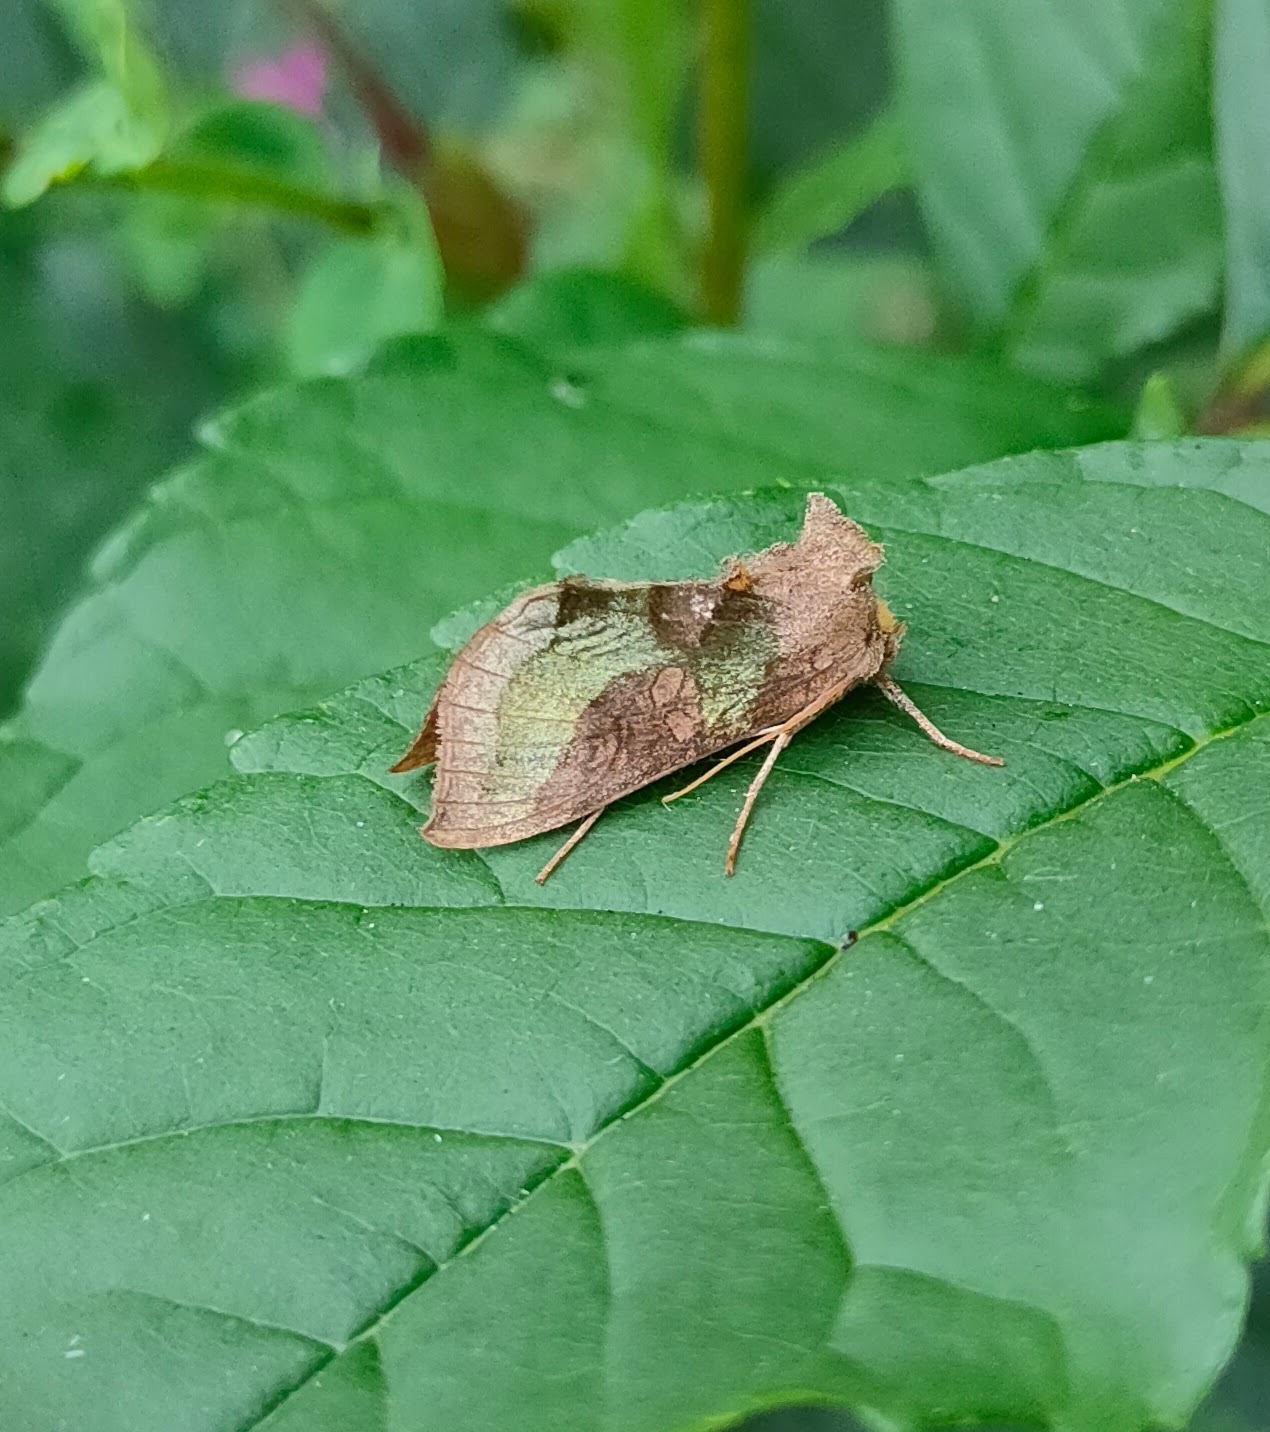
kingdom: Animalia
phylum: Arthropoda
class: Insecta
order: Lepidoptera
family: Noctuidae
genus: Diachrysia
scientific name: Diachrysia chrysitis
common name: Burnished brass
